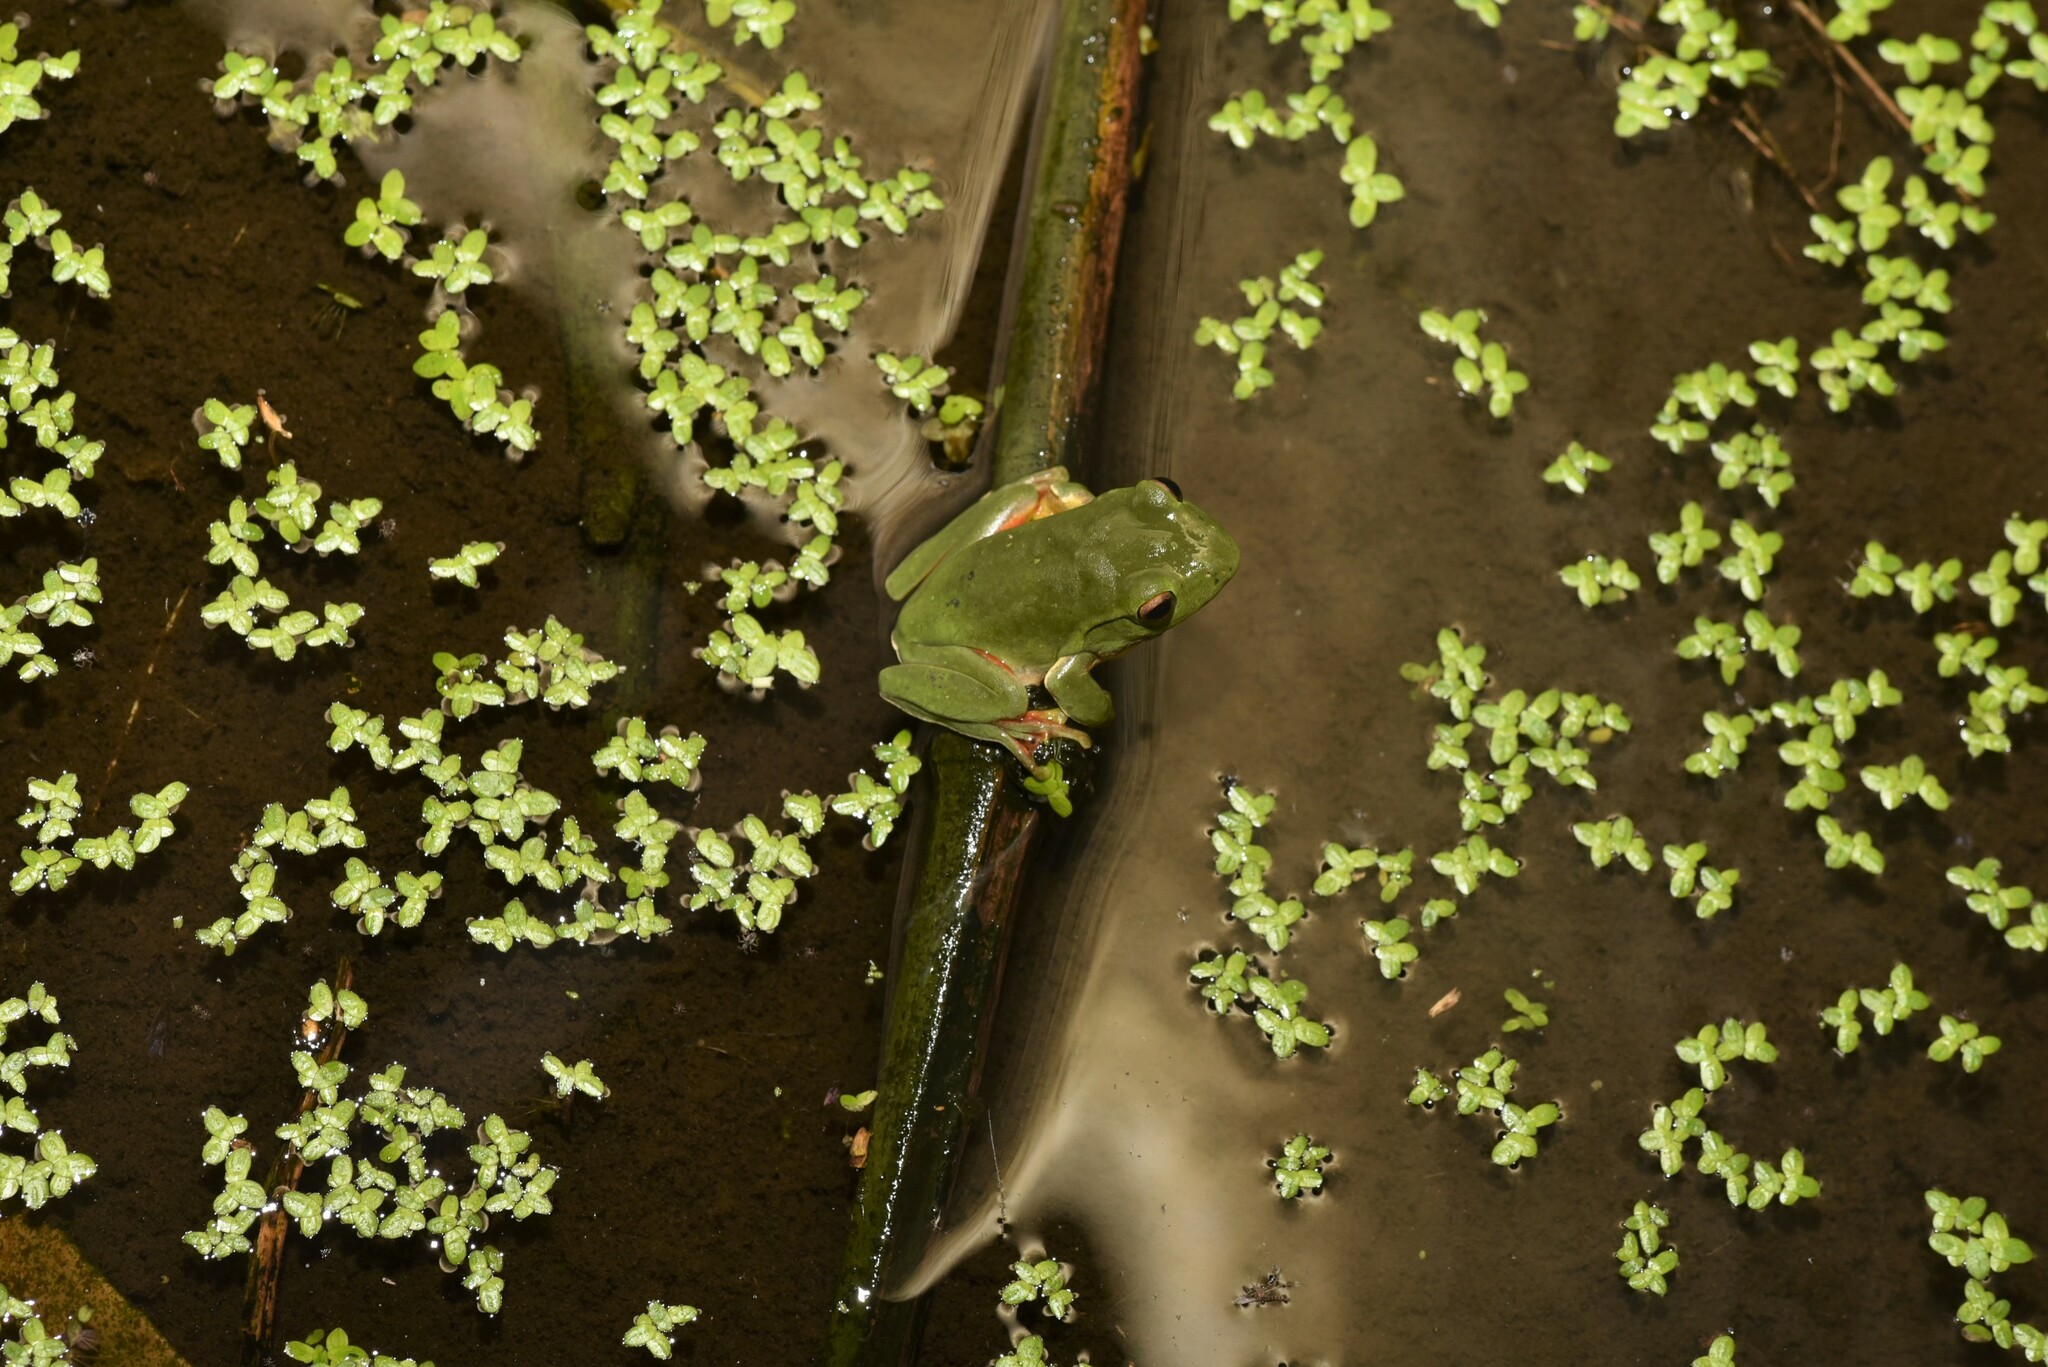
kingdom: Animalia
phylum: Chordata
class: Amphibia
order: Anura
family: Rhacophoridae
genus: Zhangixalus
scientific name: Zhangixalus moltrechti
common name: Moltrecht's treefrog
